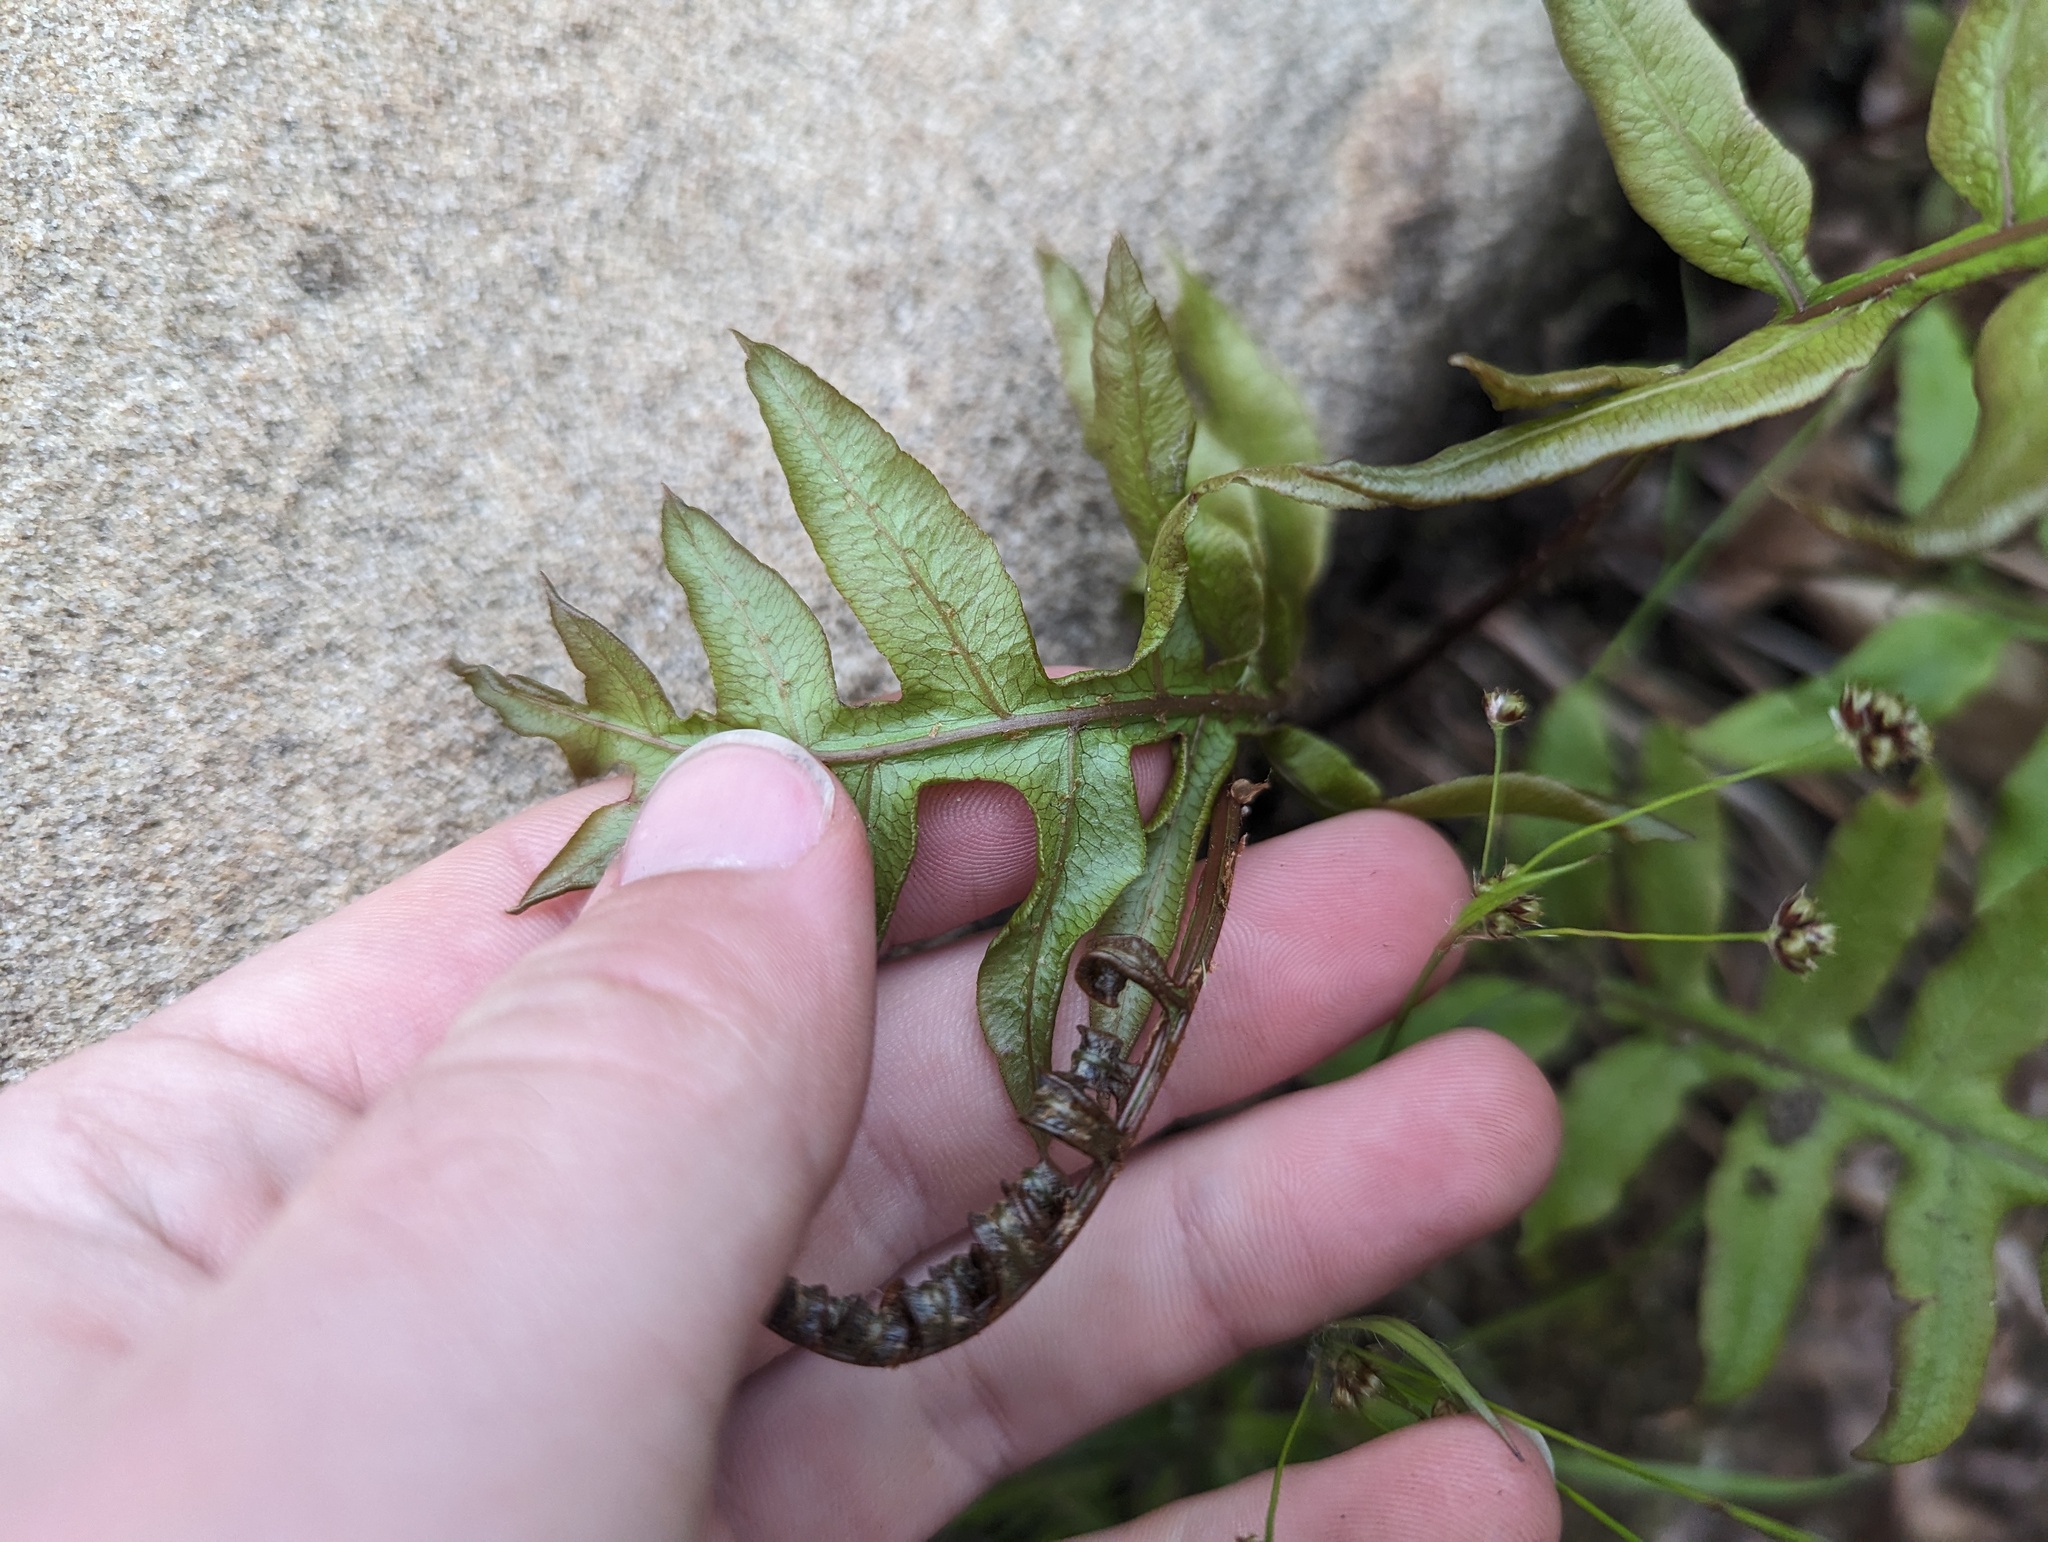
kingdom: Plantae
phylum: Tracheophyta
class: Polypodiopsida
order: Polypodiales
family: Blechnaceae
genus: Lorinseria
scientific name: Lorinseria areolata
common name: Dwarf chain fern
